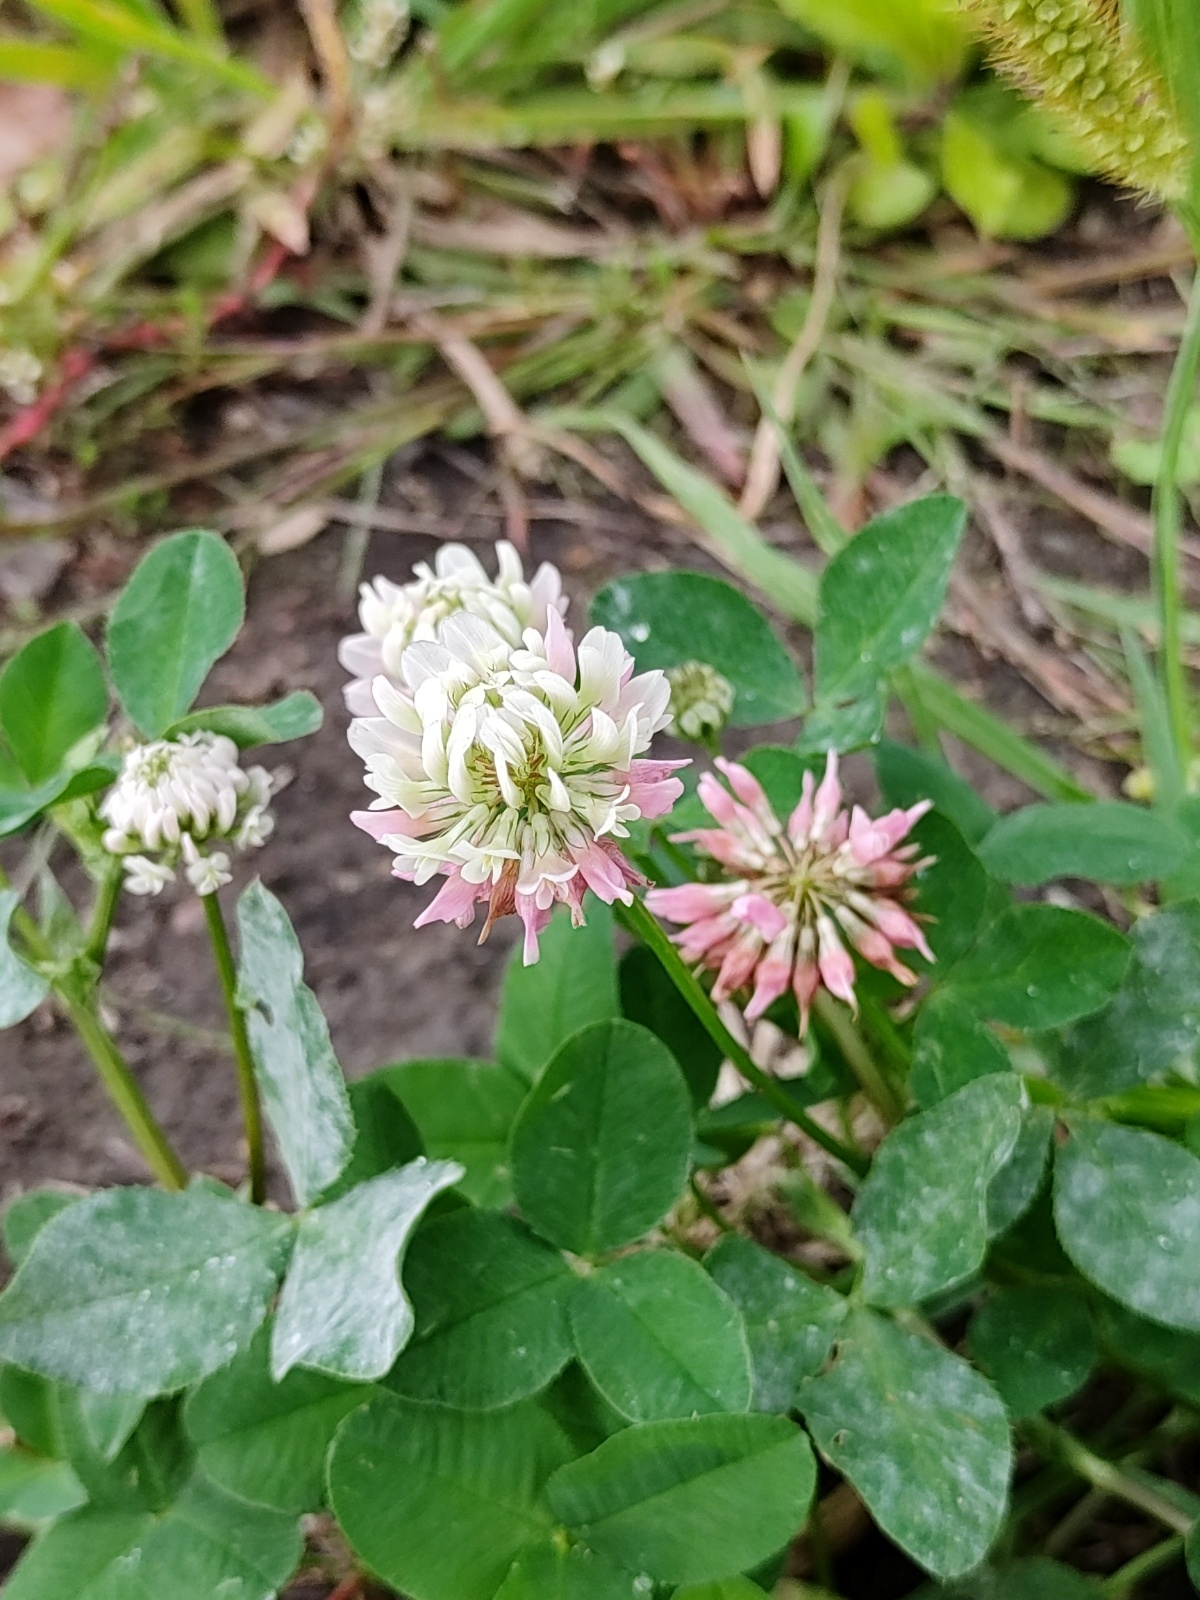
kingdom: Plantae
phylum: Tracheophyta
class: Magnoliopsida
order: Fabales
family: Fabaceae
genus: Trifolium
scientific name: Trifolium hybridum
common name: Alsike clover
